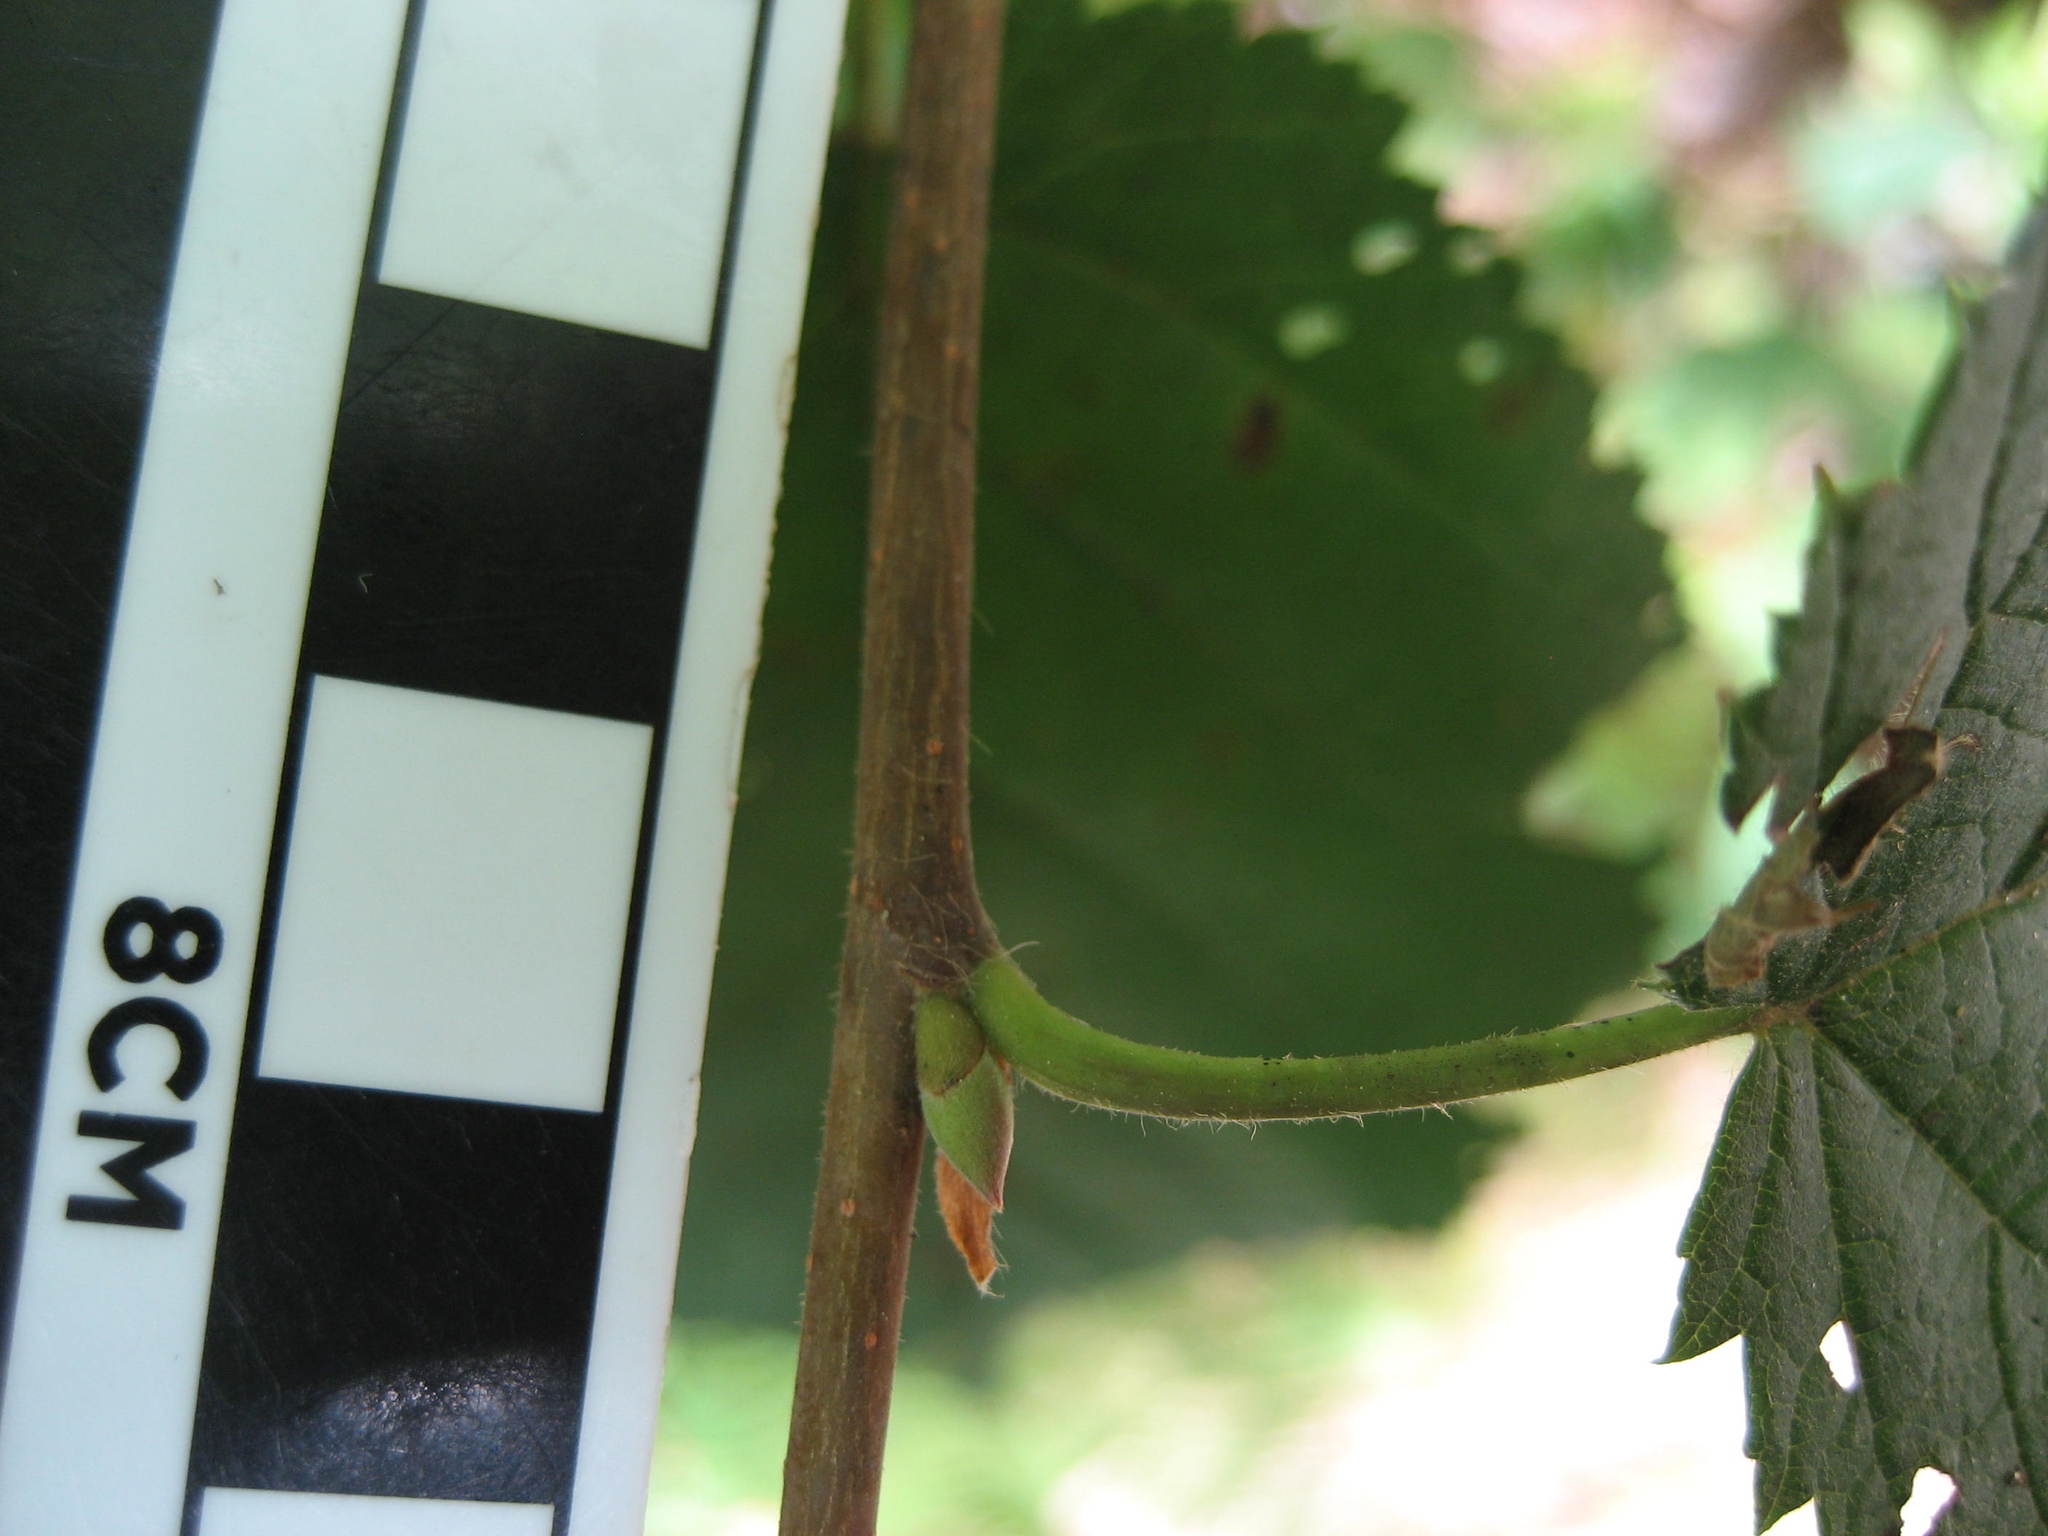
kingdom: Plantae
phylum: Tracheophyta
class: Magnoliopsida
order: Fagales
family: Betulaceae
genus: Corylus
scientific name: Corylus cornuta
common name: Beaked hazel
